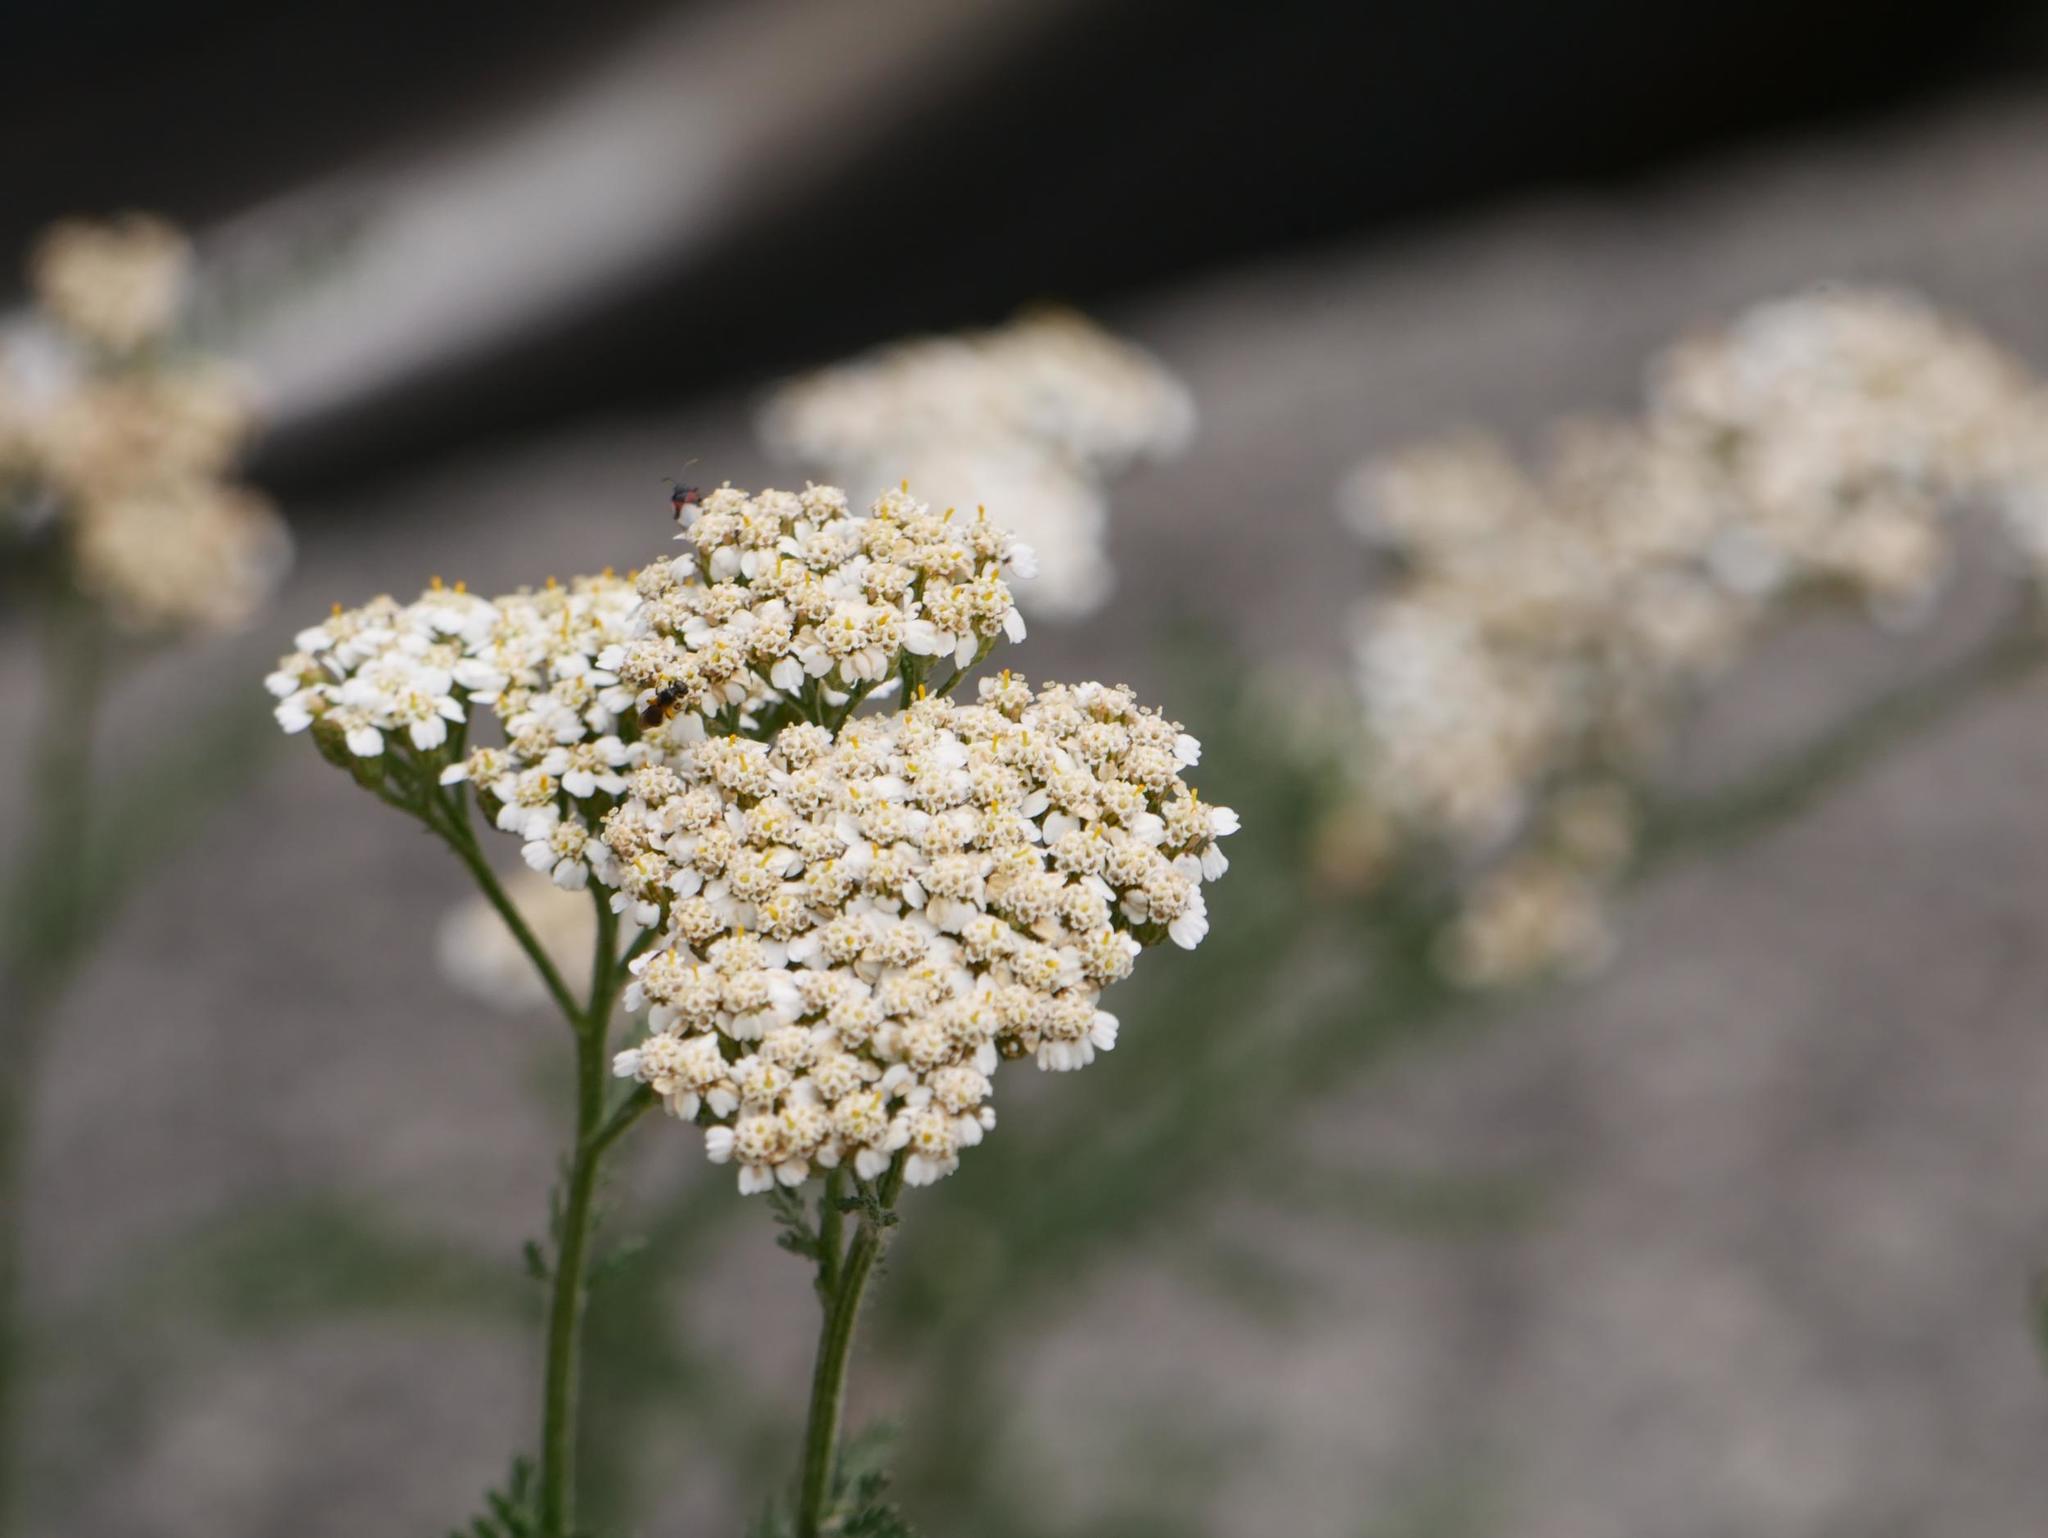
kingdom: Plantae
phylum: Tracheophyta
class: Magnoliopsida
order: Asterales
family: Asteraceae
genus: Achillea
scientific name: Achillea millefolium
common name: Yarrow
